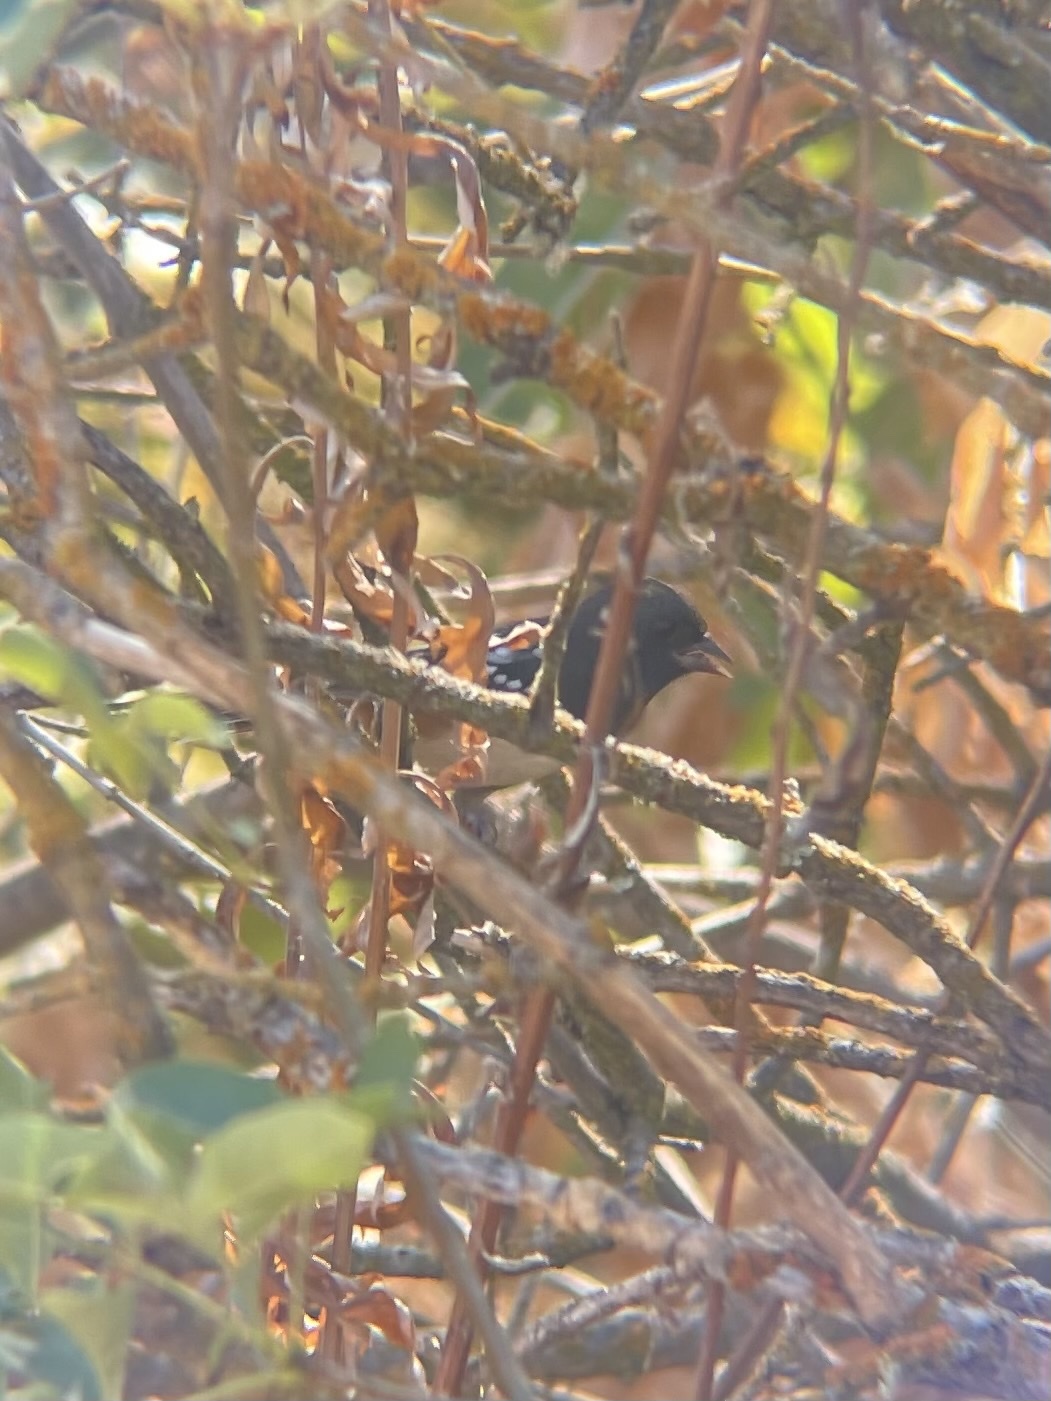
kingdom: Animalia
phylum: Chordata
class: Aves
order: Passeriformes
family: Passerellidae
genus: Pipilo
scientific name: Pipilo maculatus
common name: Spotted towhee
